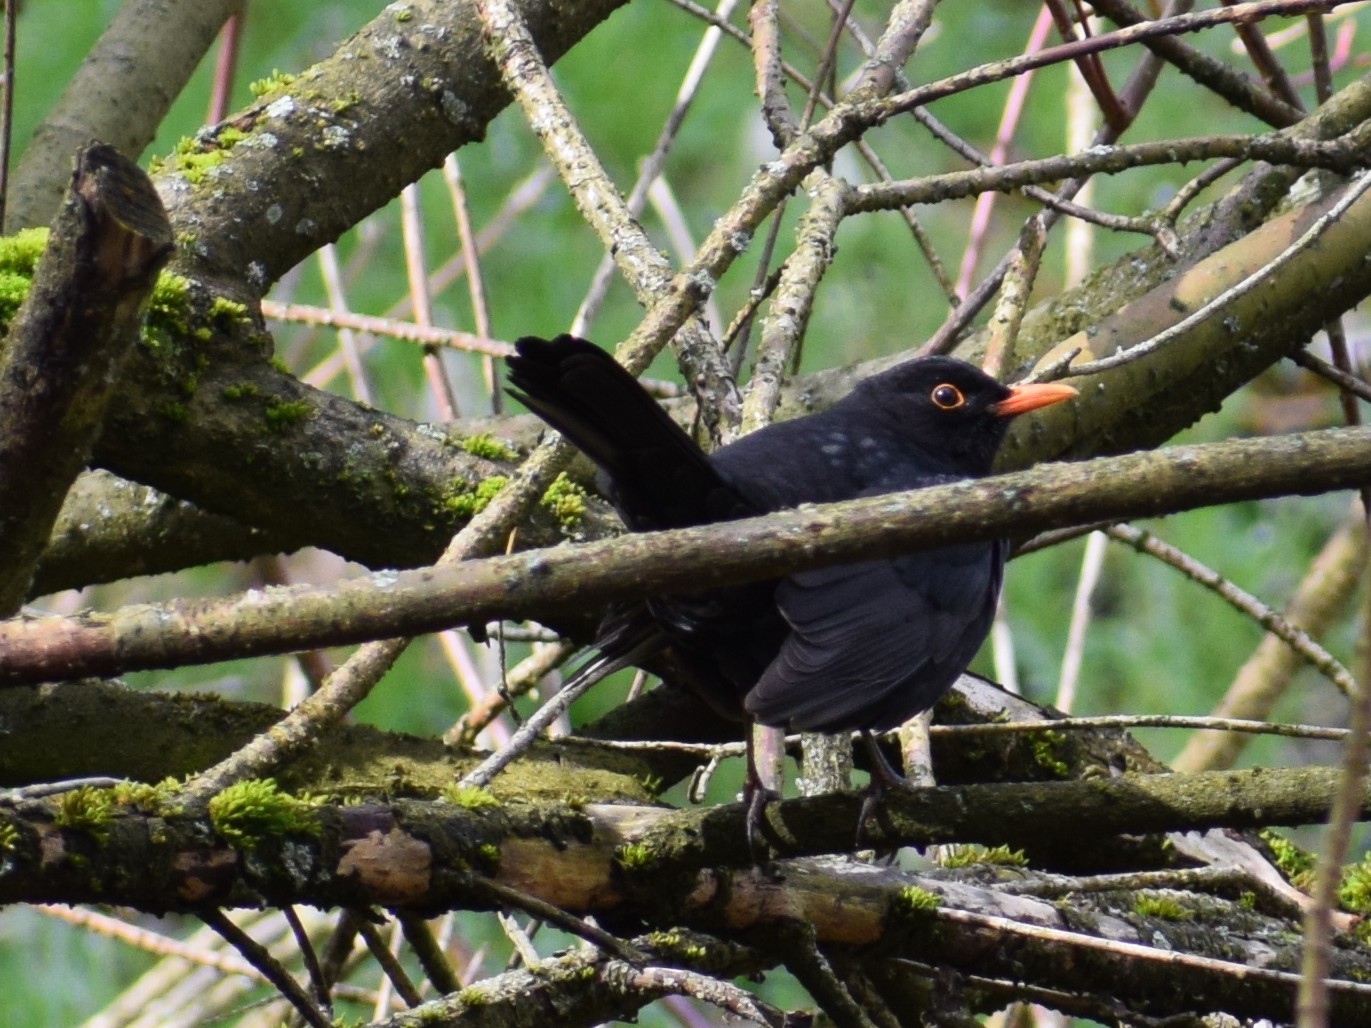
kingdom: Animalia
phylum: Chordata
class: Aves
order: Passeriformes
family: Turdidae
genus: Turdus
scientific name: Turdus merula
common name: Common blackbird
